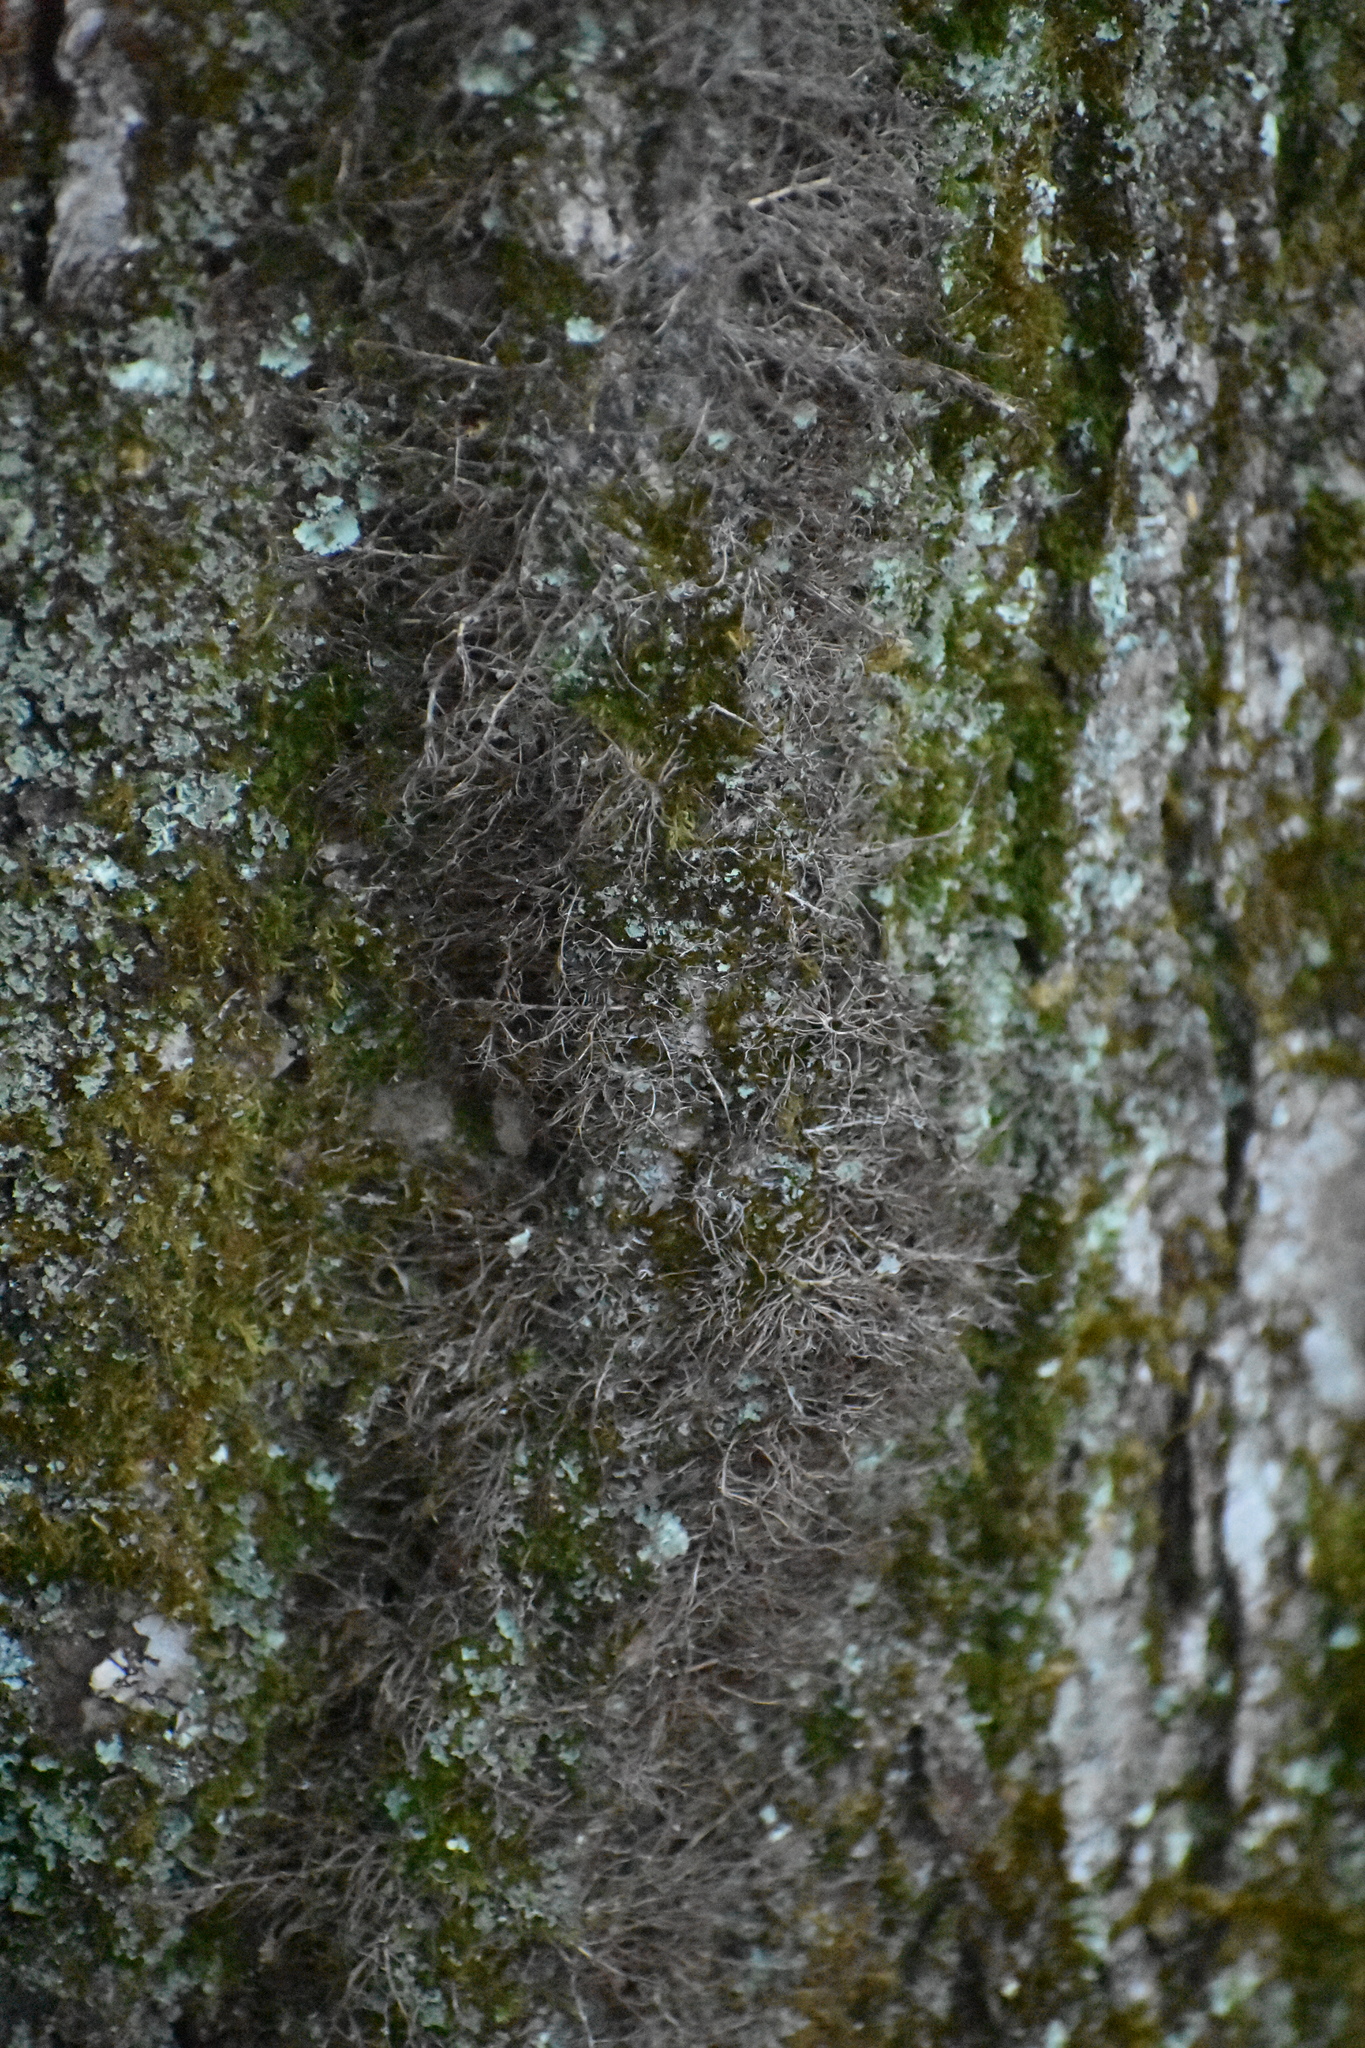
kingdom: Plantae
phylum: Tracheophyta
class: Magnoliopsida
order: Sapindales
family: Anacardiaceae
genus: Toxicodendron
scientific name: Toxicodendron radicans
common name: Poison ivy
